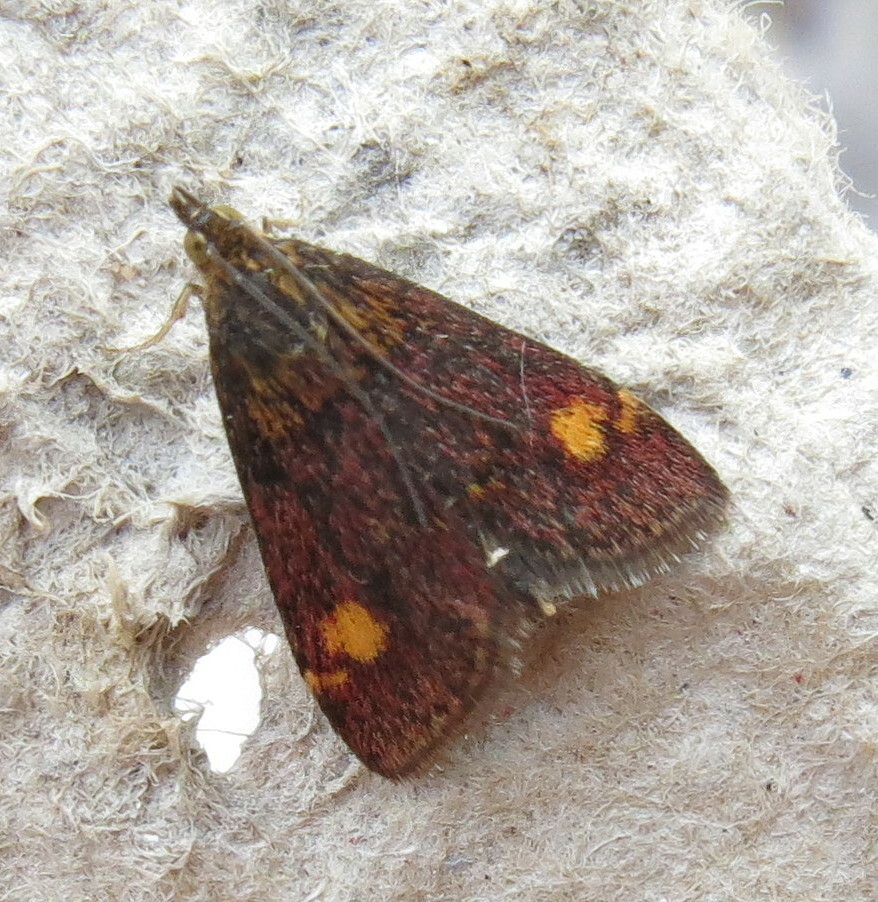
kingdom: Animalia
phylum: Arthropoda
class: Insecta
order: Lepidoptera
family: Crambidae
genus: Pyrausta
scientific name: Pyrausta aurata
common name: Small purple & gold
